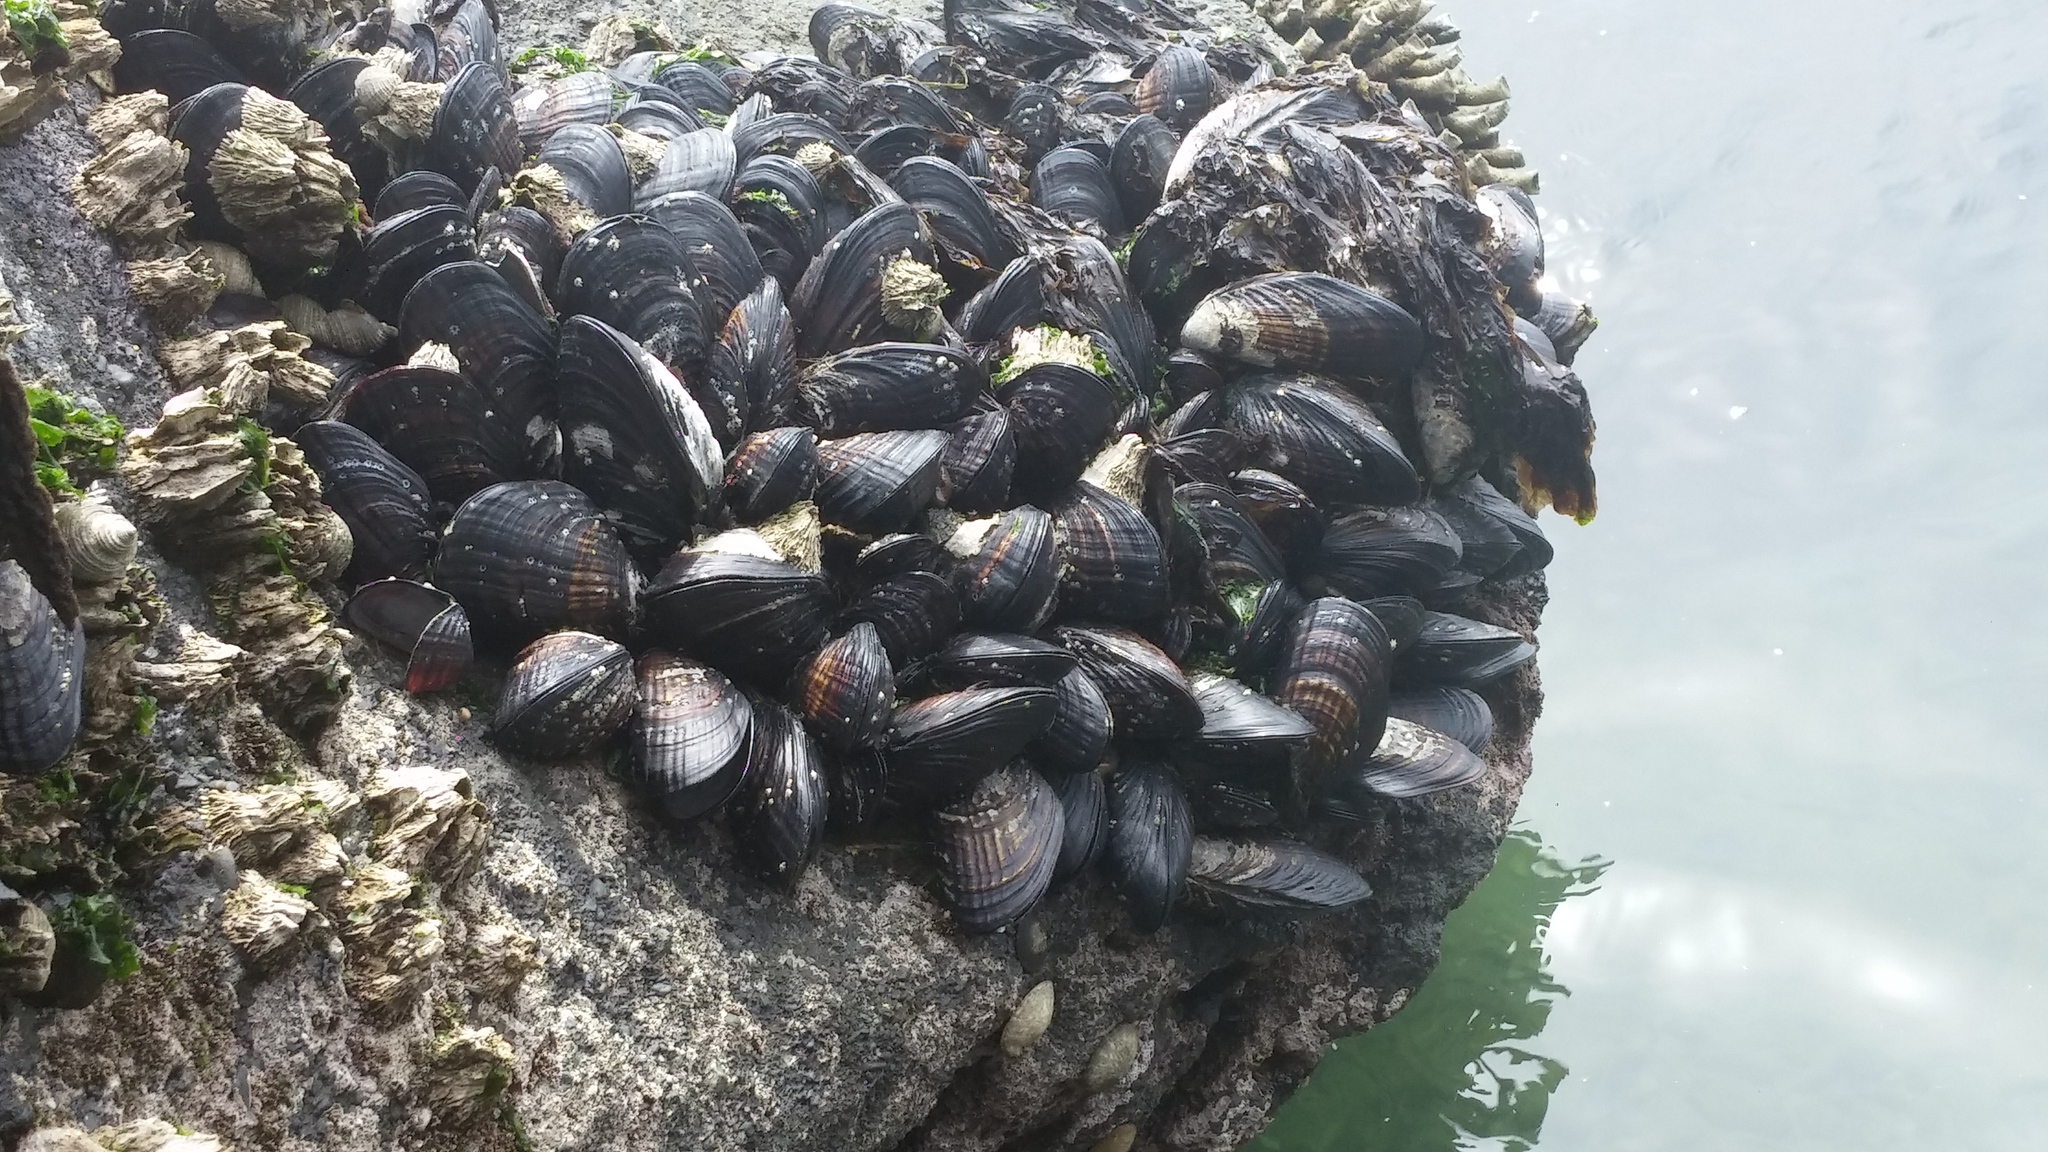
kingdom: Animalia
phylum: Mollusca
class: Bivalvia
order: Mytilida
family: Mytilidae
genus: Mytilus
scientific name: Mytilus californianus
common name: California mussel
